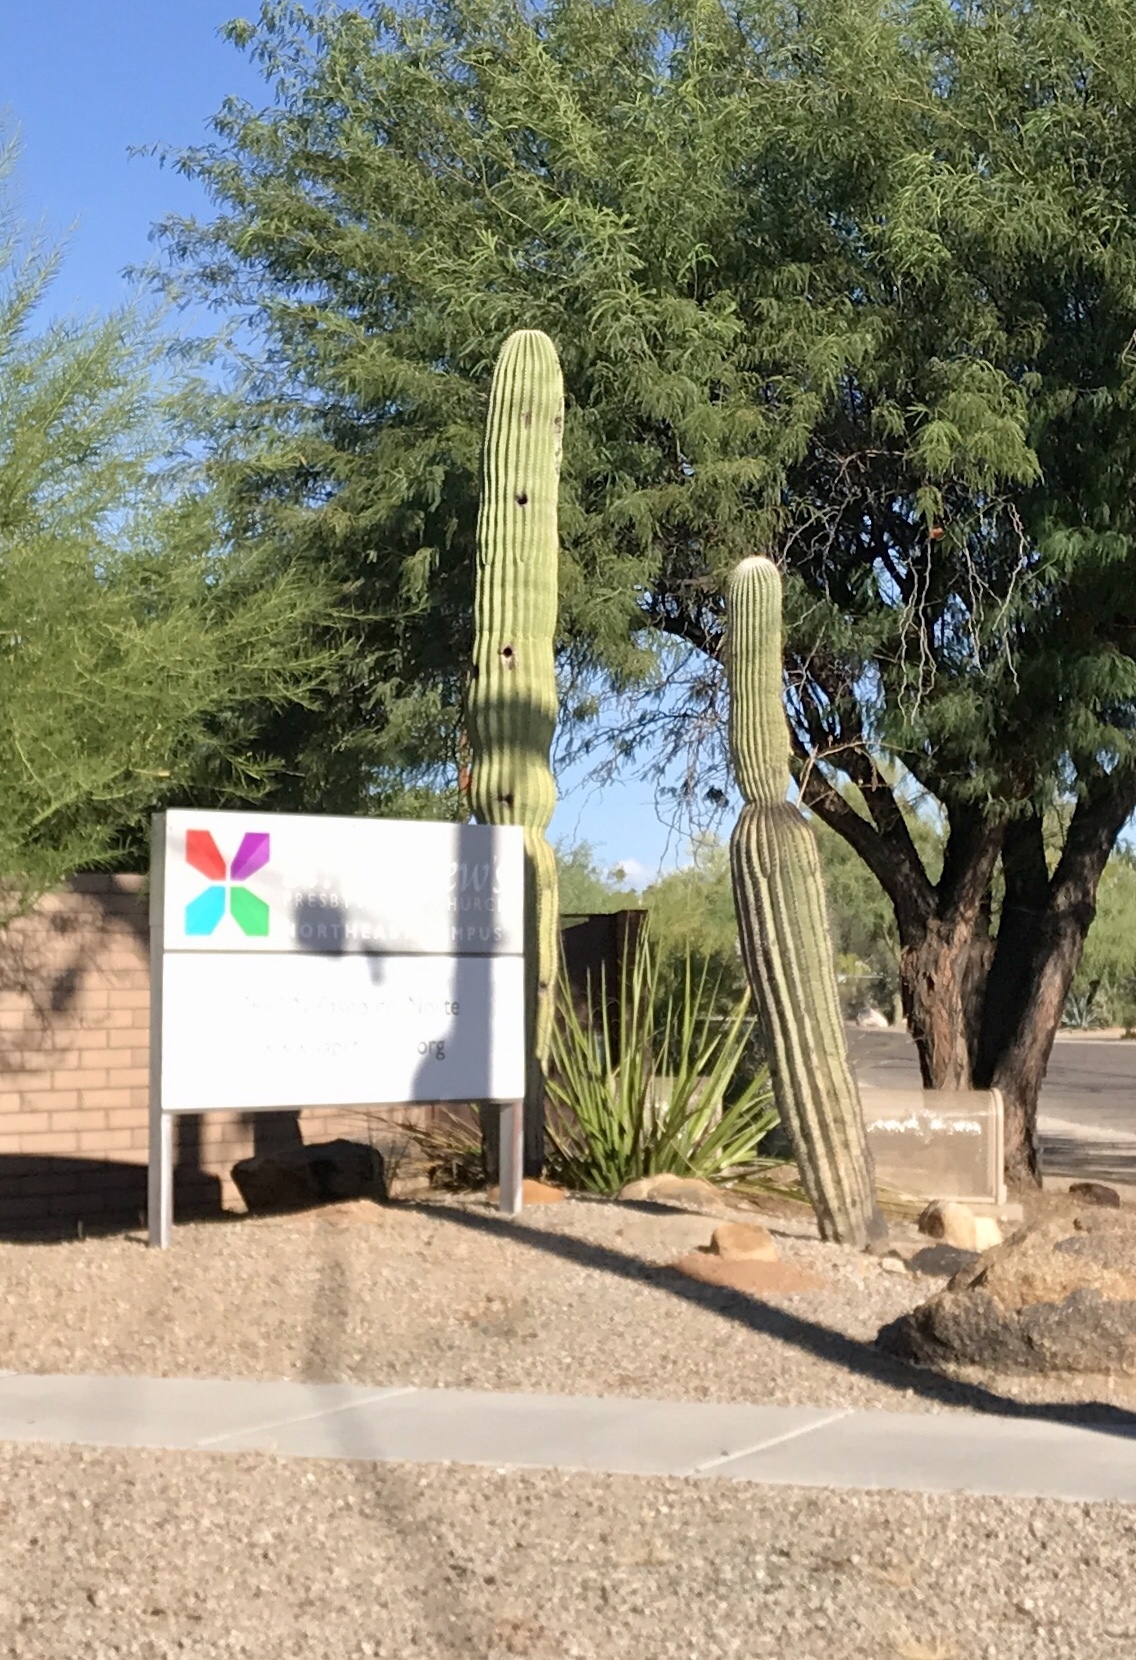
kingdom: Plantae
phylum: Tracheophyta
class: Magnoliopsida
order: Caryophyllales
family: Cactaceae
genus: Carnegiea
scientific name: Carnegiea gigantea
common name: Saguaro
